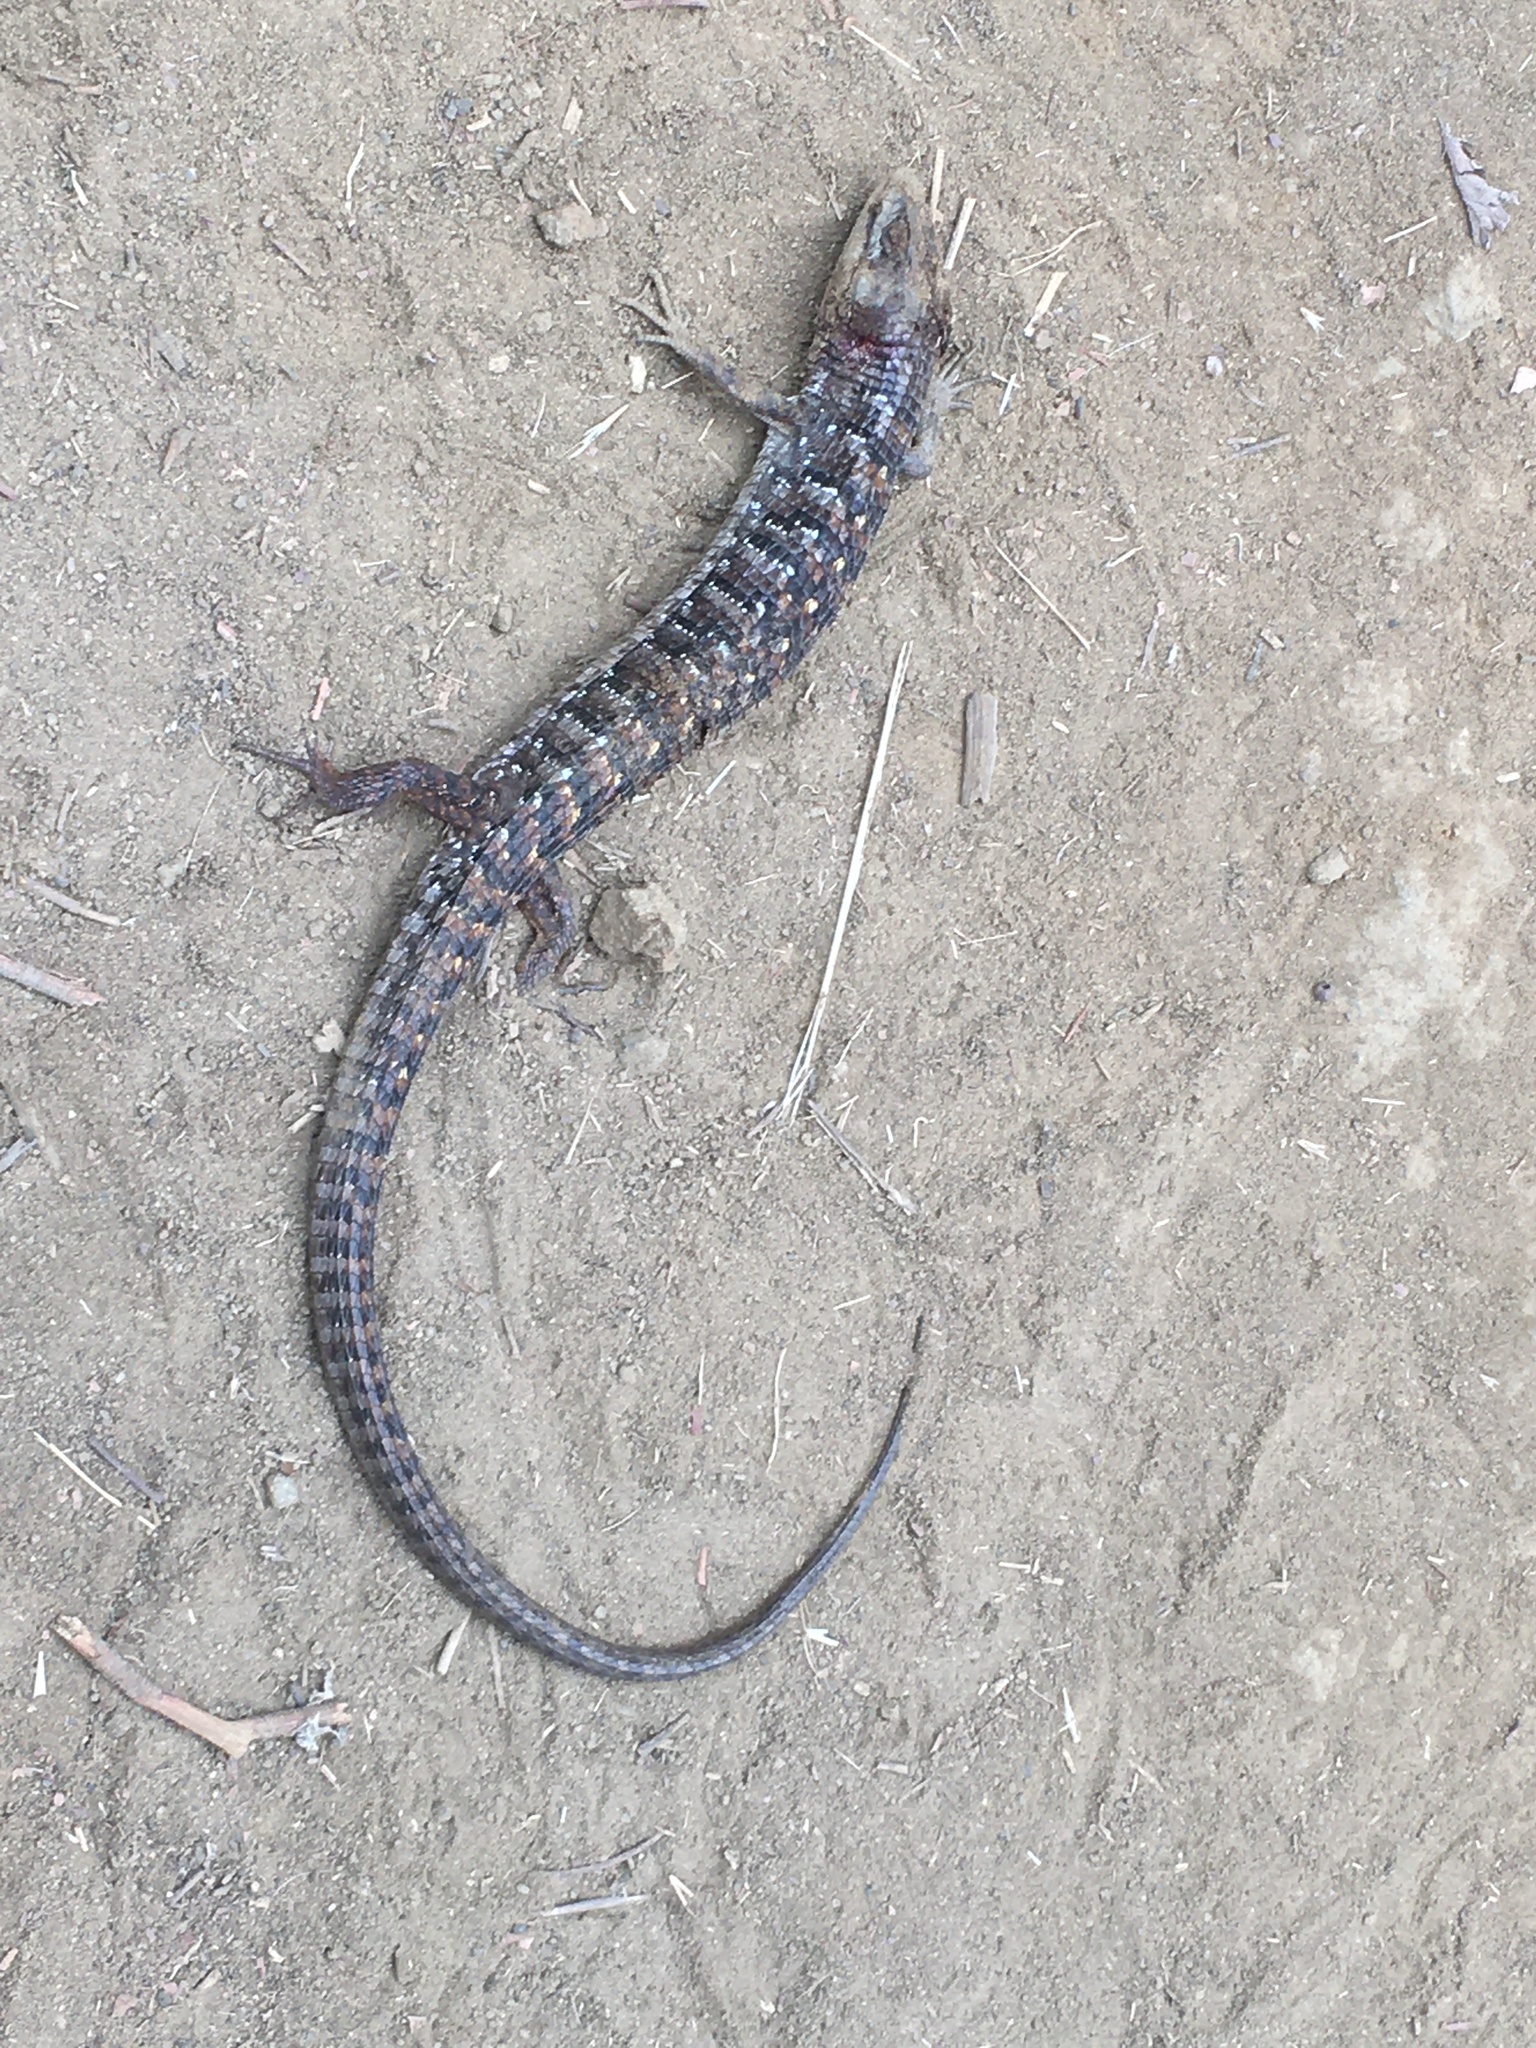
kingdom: Animalia
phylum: Chordata
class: Squamata
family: Anguidae
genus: Elgaria
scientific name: Elgaria multicarinata
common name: Southern alligator lizard
